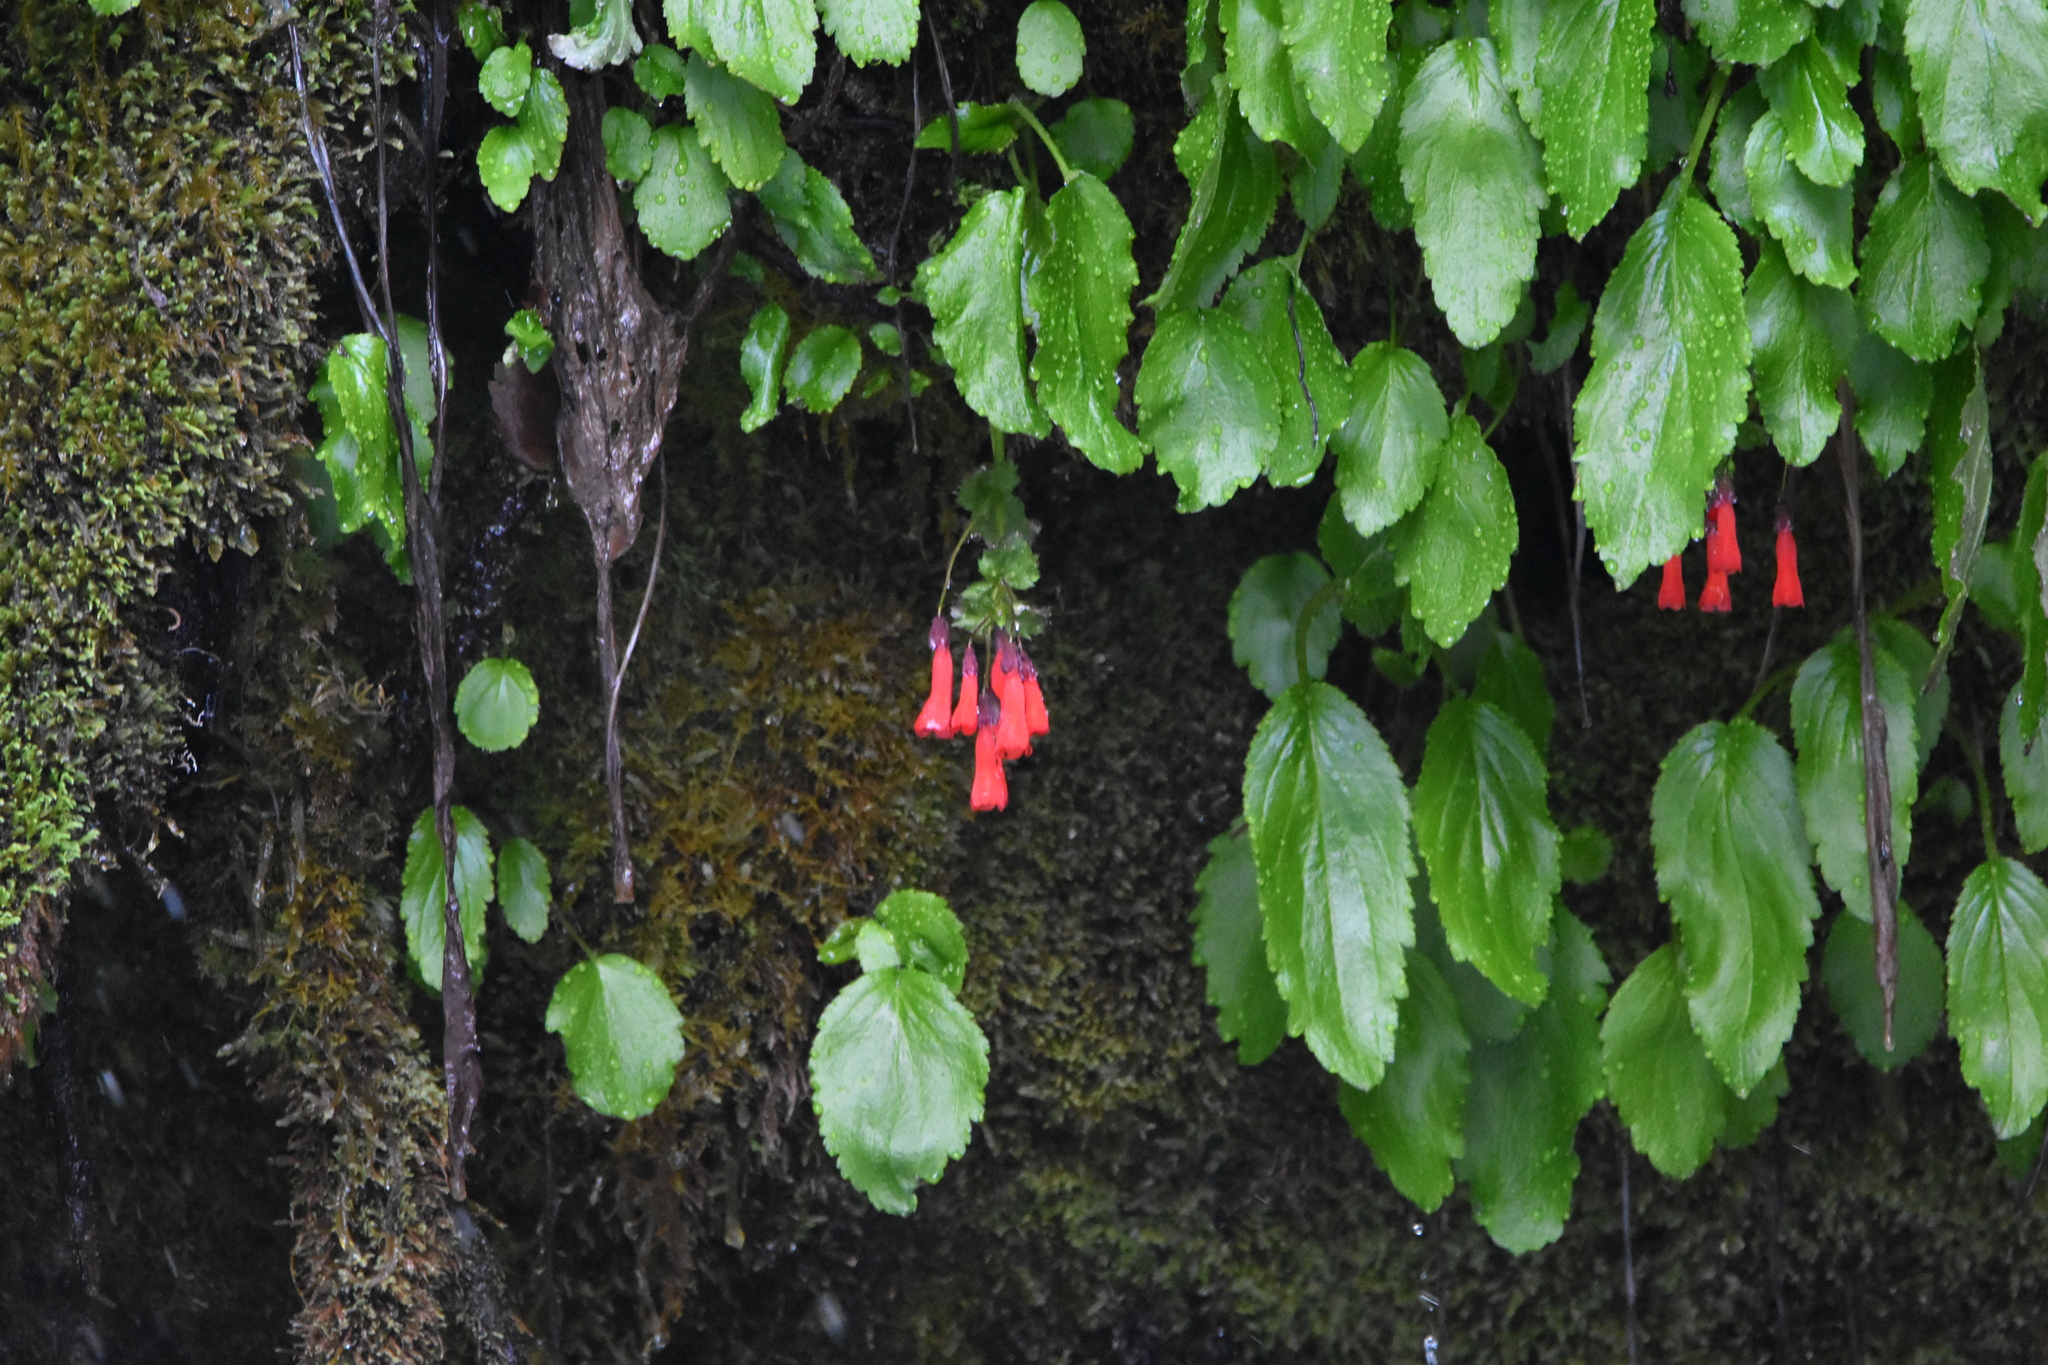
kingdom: Plantae
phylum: Tracheophyta
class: Magnoliopsida
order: Lamiales
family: Plantaginaceae
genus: Ourisia
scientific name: Ourisia ruellioides
